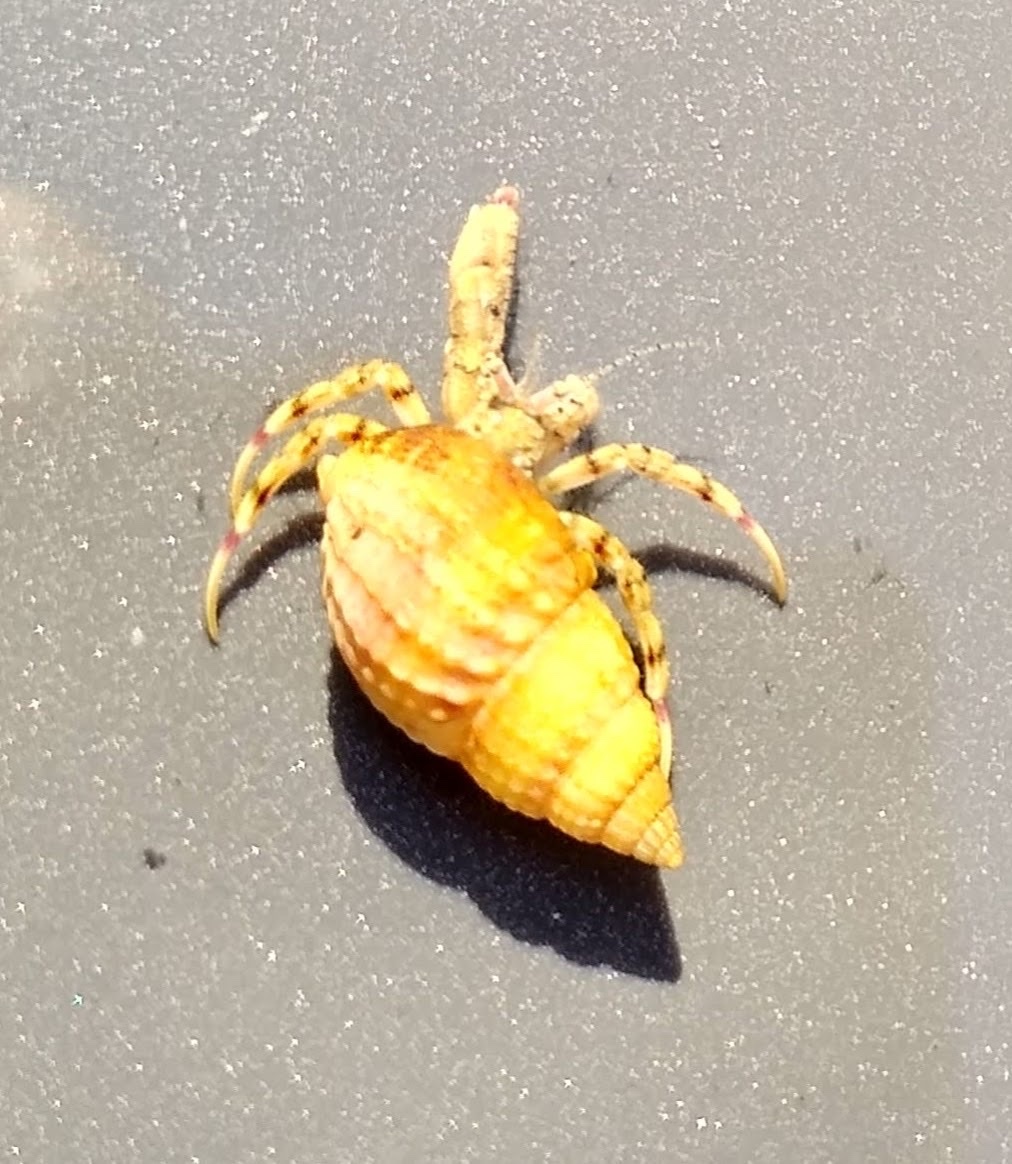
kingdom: Animalia
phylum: Arthropoda
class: Malacostraca
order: Decapoda
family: Diogenidae
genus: Diogenes
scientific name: Diogenes pugilator
